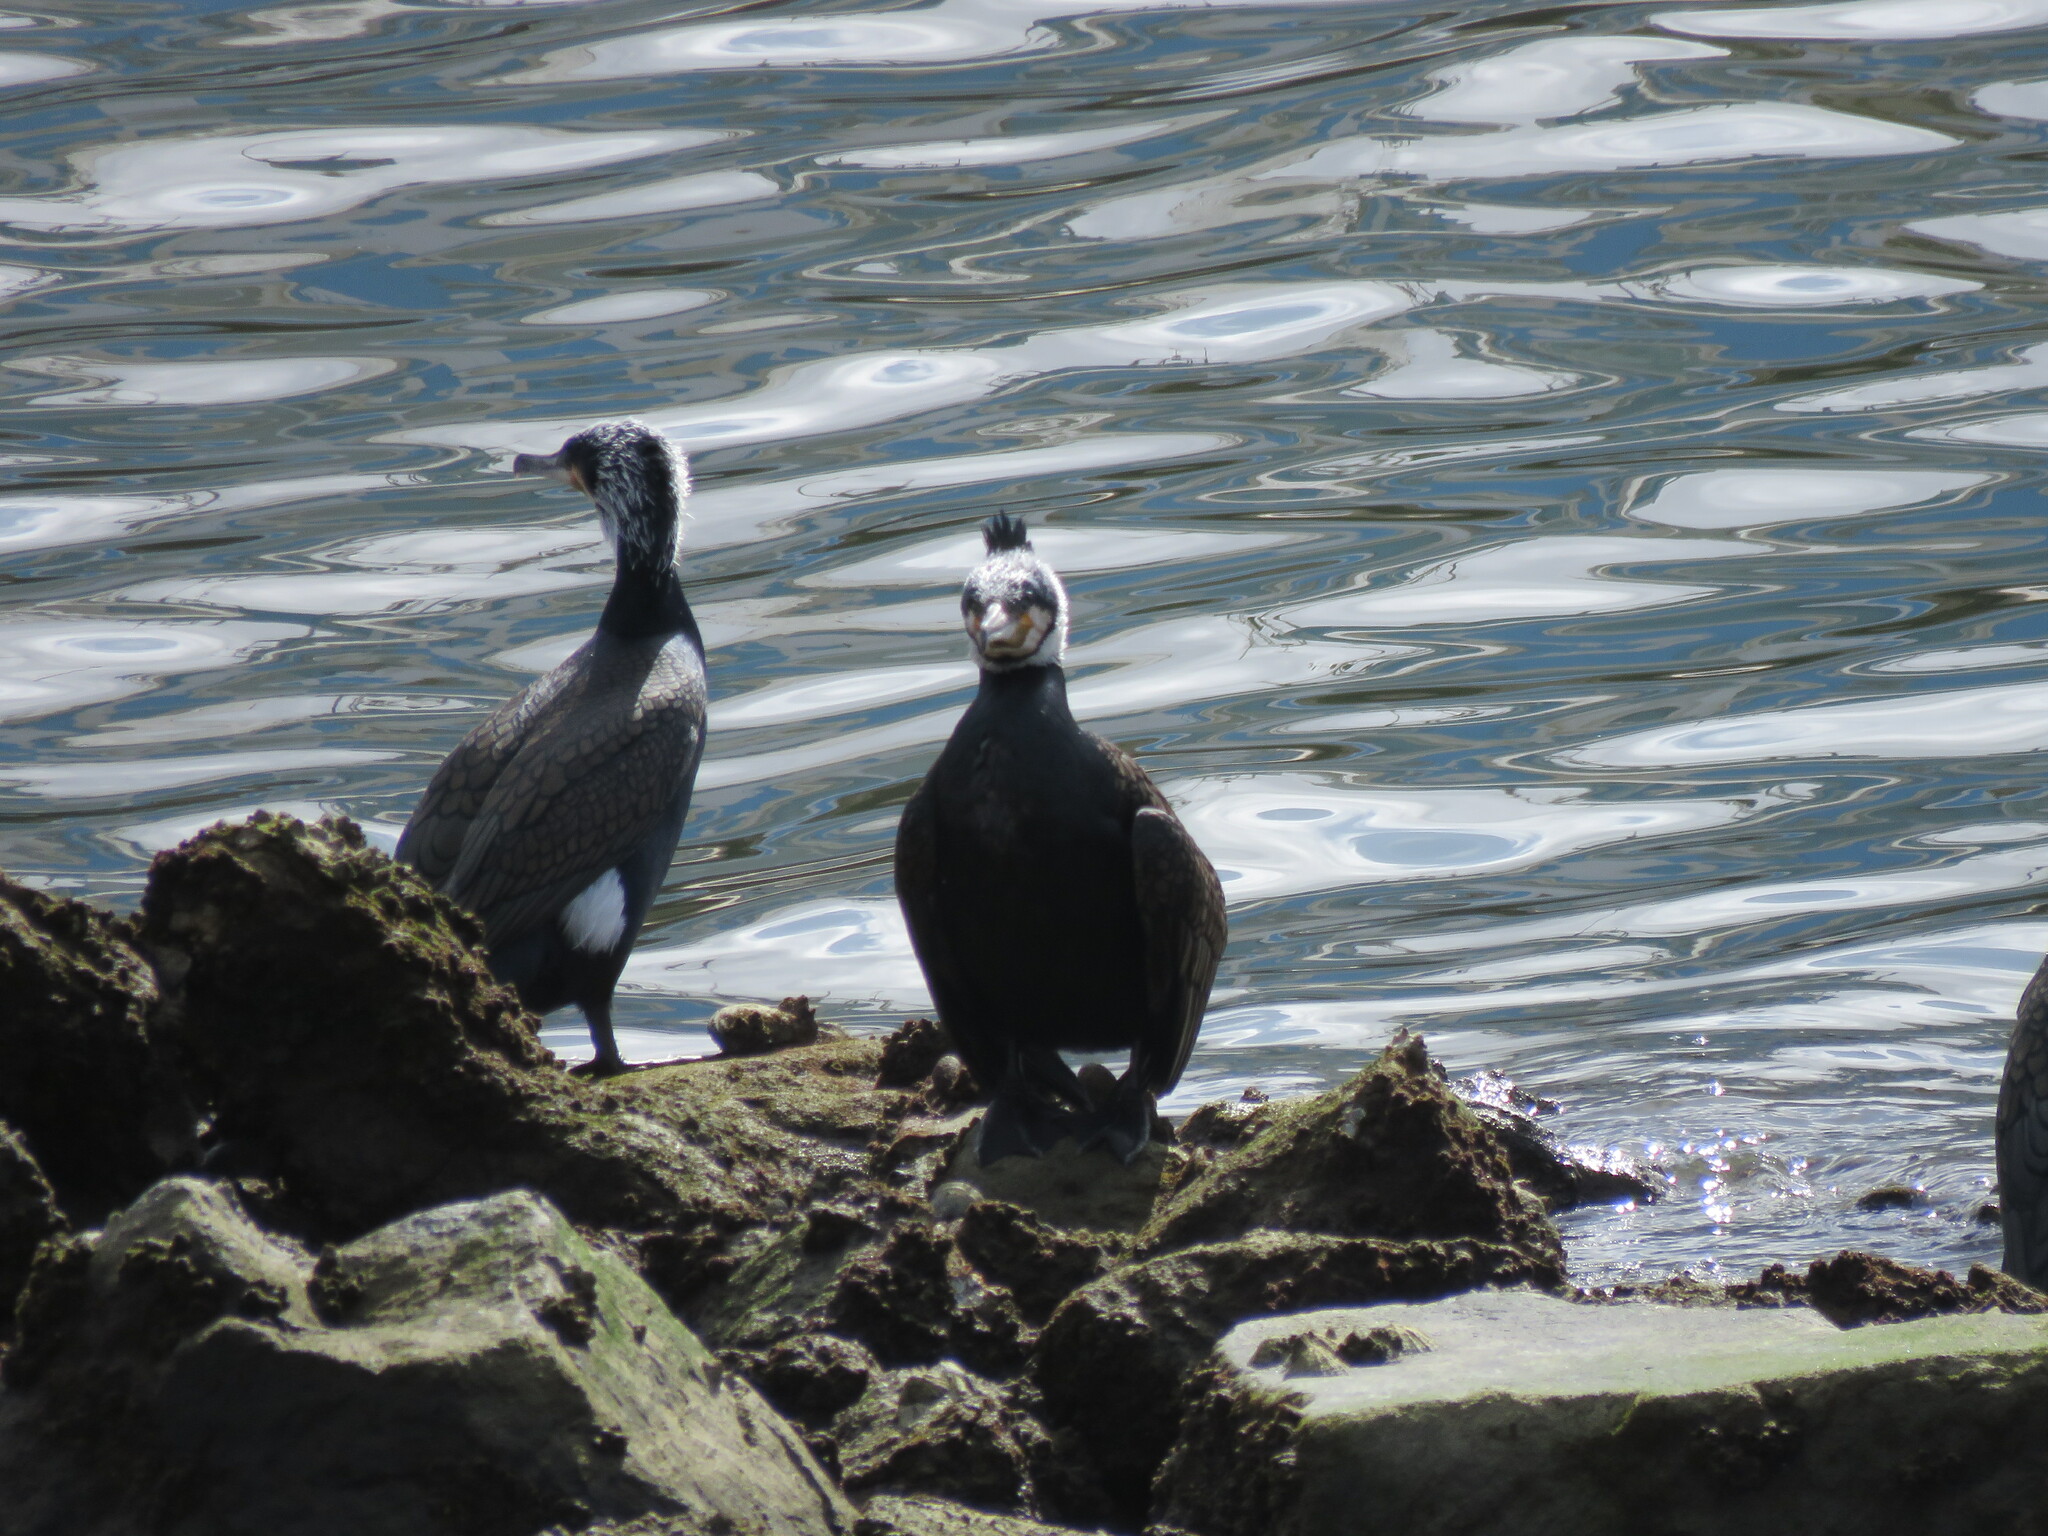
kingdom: Animalia
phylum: Chordata
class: Aves
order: Suliformes
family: Phalacrocoracidae
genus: Phalacrocorax
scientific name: Phalacrocorax carbo
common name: Great cormorant
